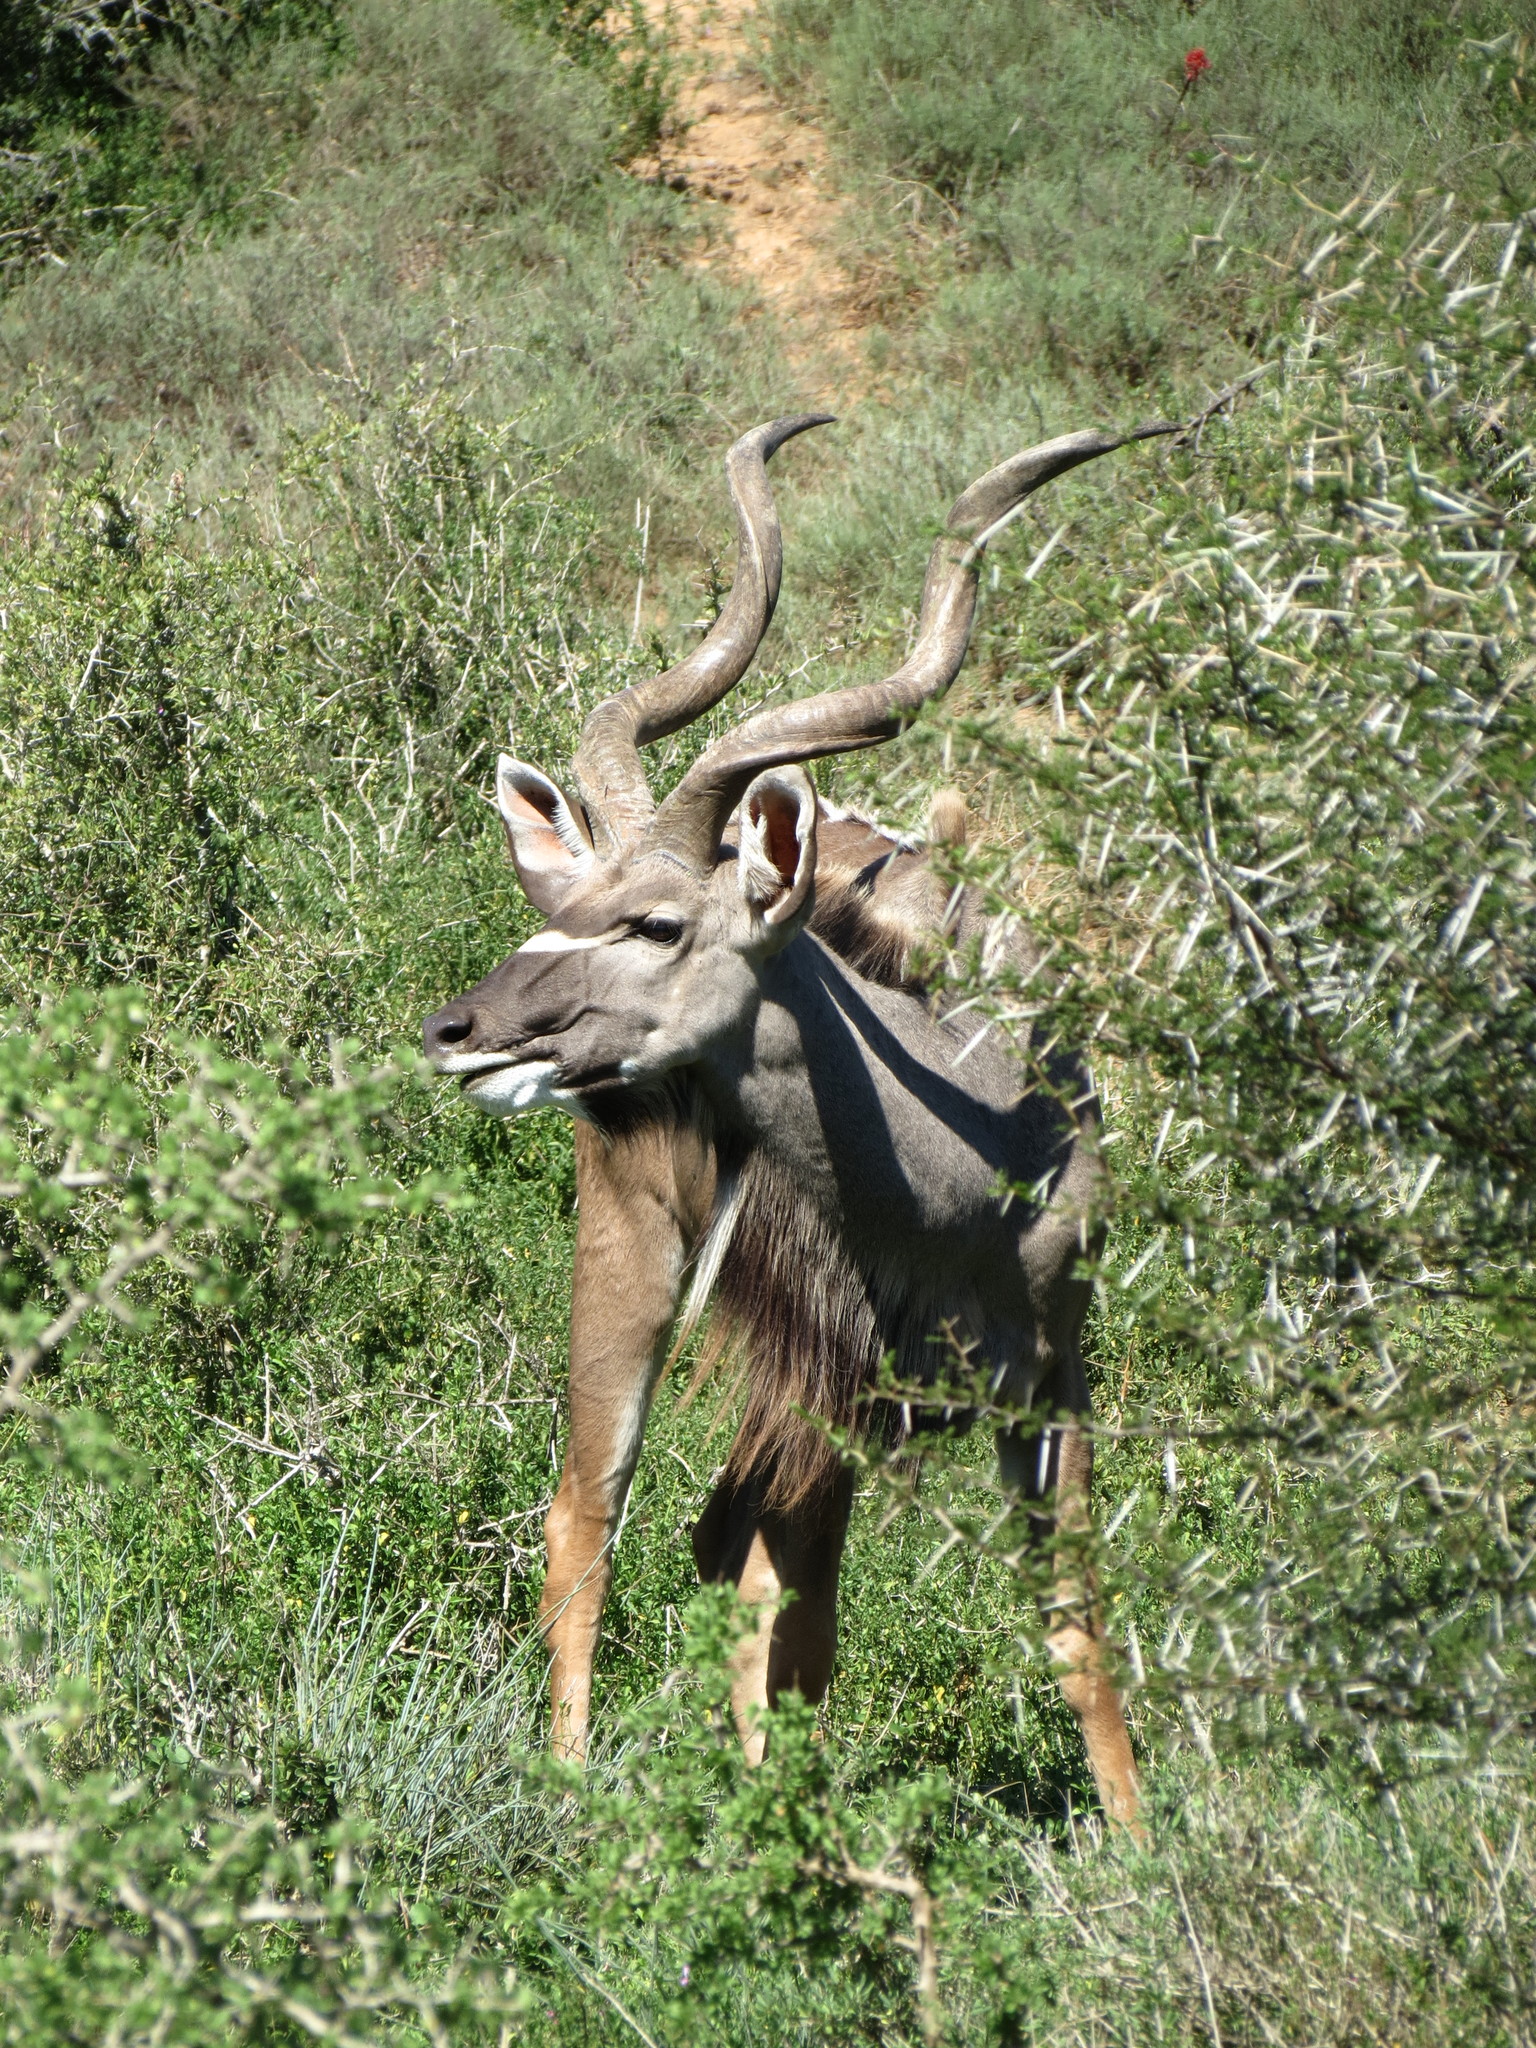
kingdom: Animalia
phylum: Chordata
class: Mammalia
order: Artiodactyla
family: Bovidae
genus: Tragelaphus
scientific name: Tragelaphus strepsiceros
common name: Greater kudu
